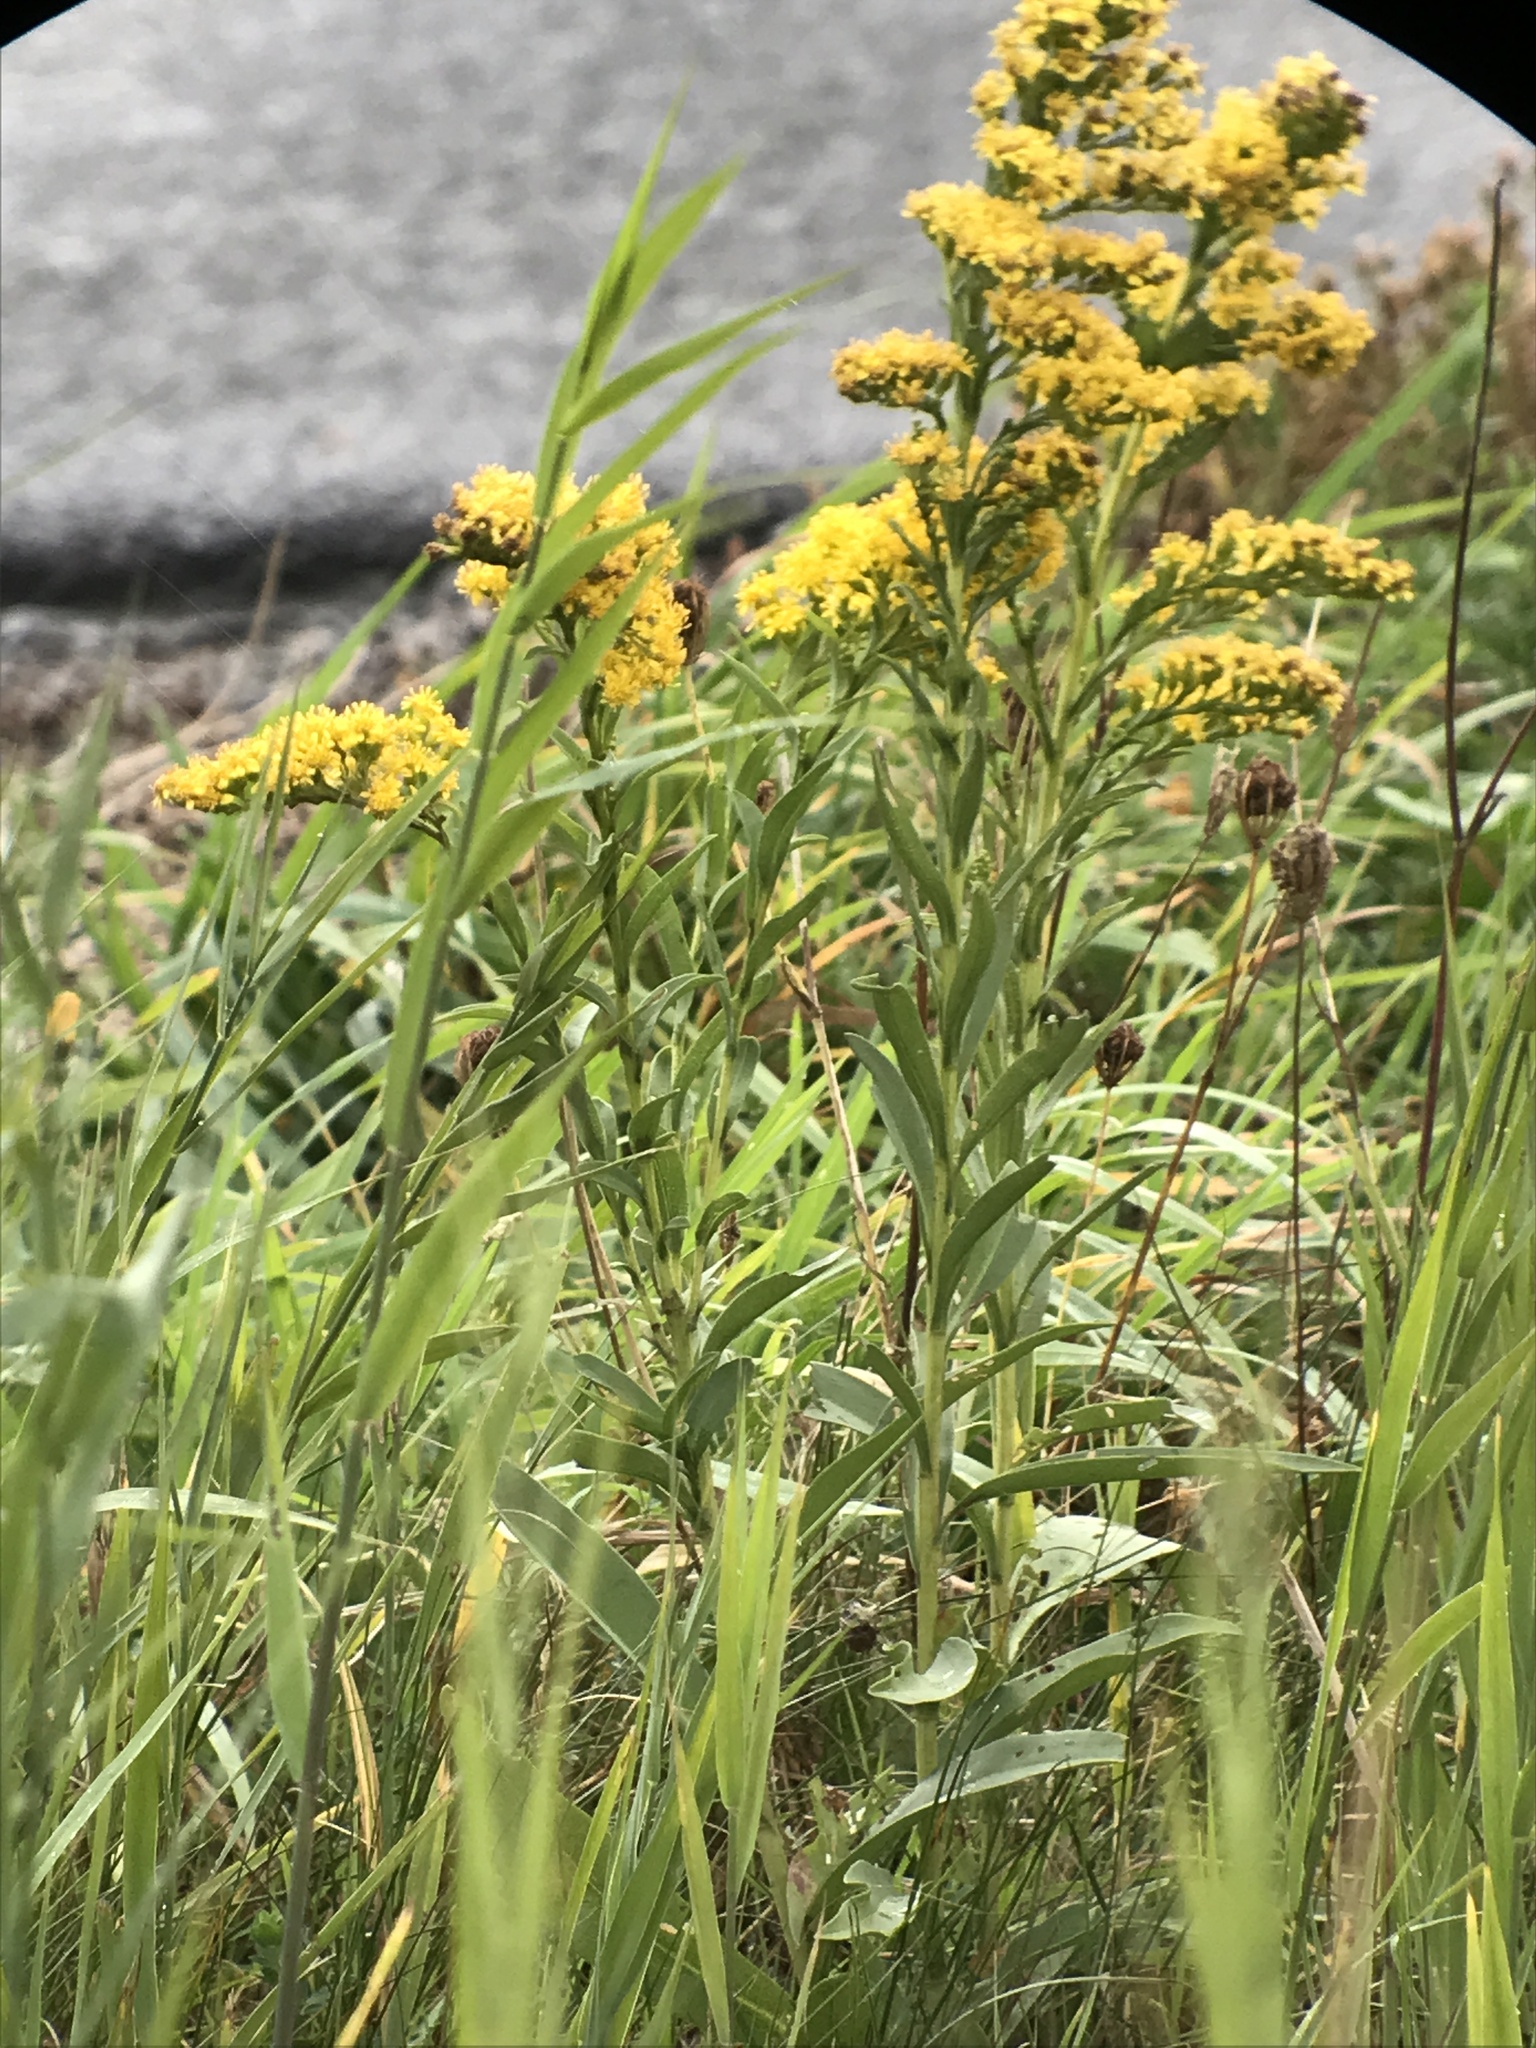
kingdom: Plantae
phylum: Tracheophyta
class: Magnoliopsida
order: Asterales
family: Asteraceae
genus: Solidago
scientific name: Solidago sempervirens
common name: Salt-marsh goldenrod
